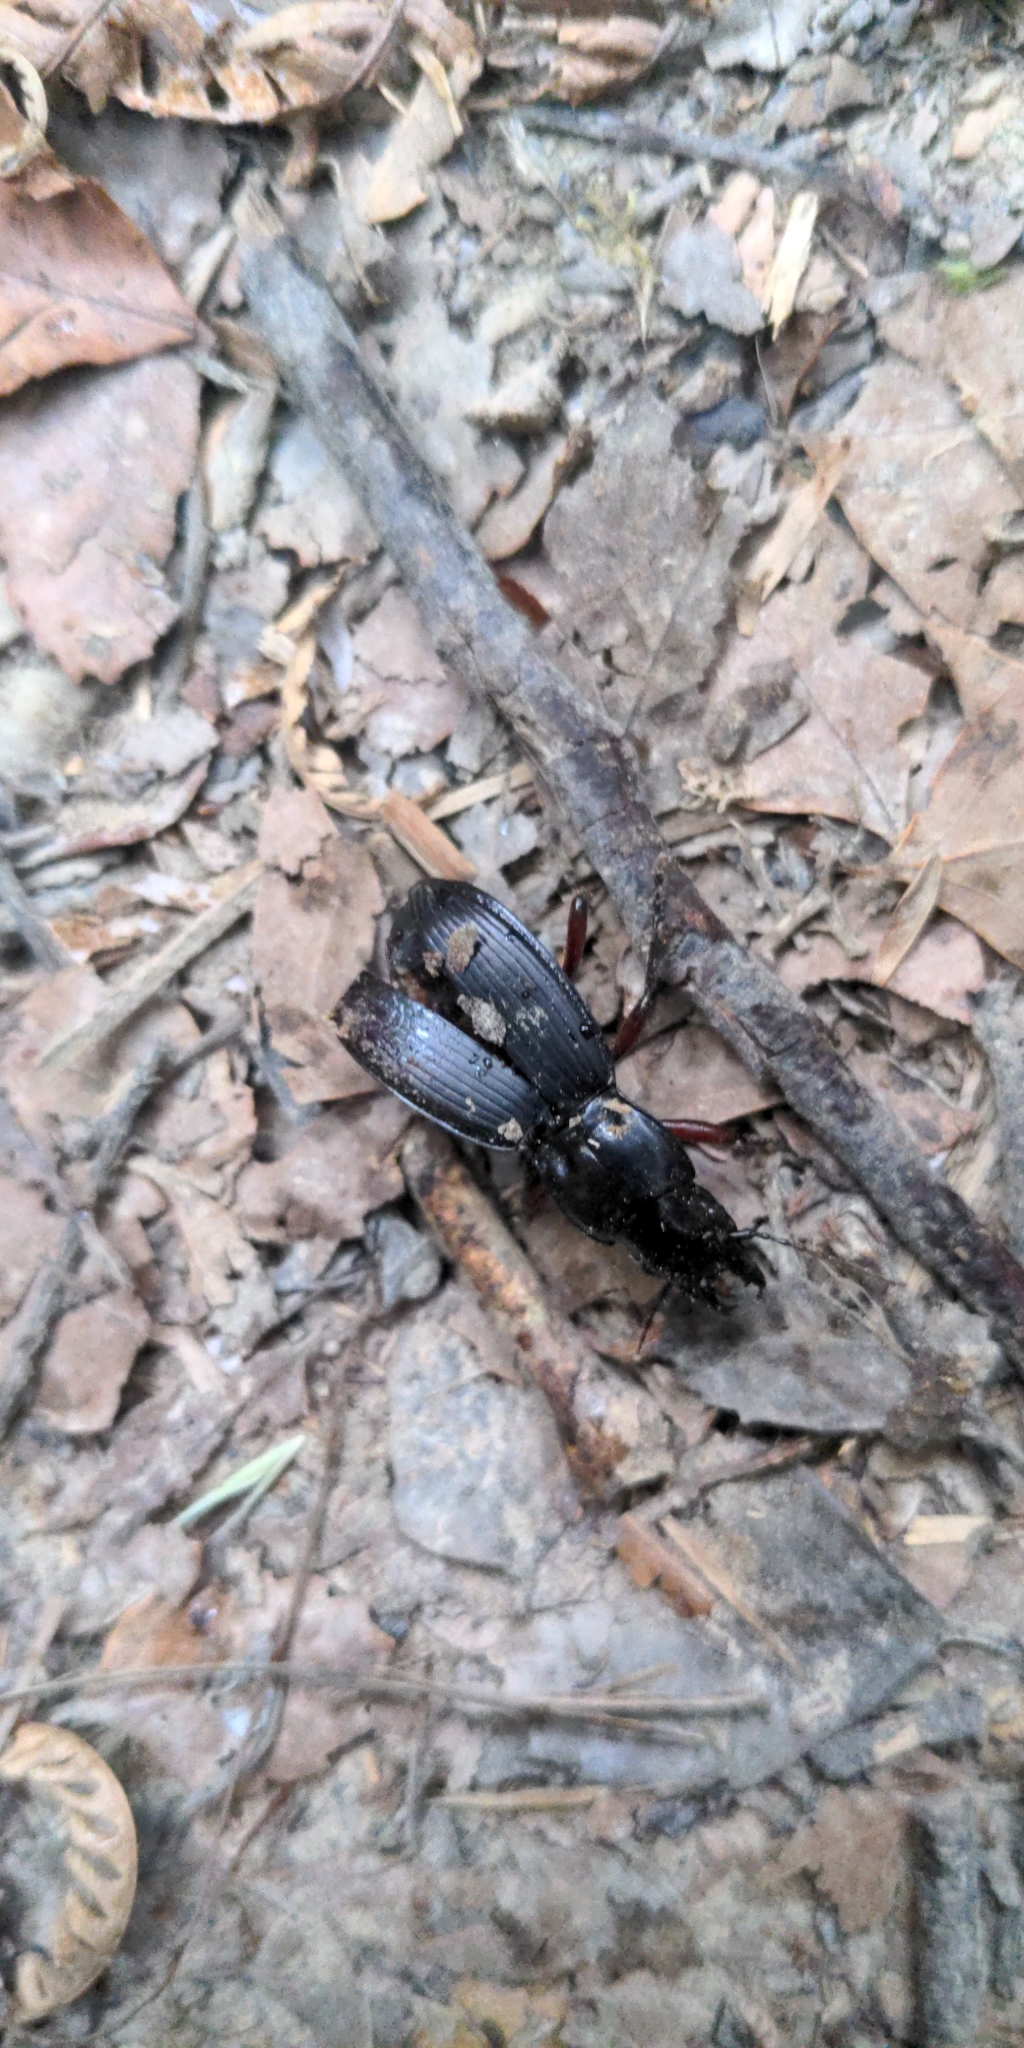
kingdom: Animalia
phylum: Arthropoda
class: Insecta
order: Coleoptera
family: Carabidae
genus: Plocamostethus
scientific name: Plocamostethus planiusculus
